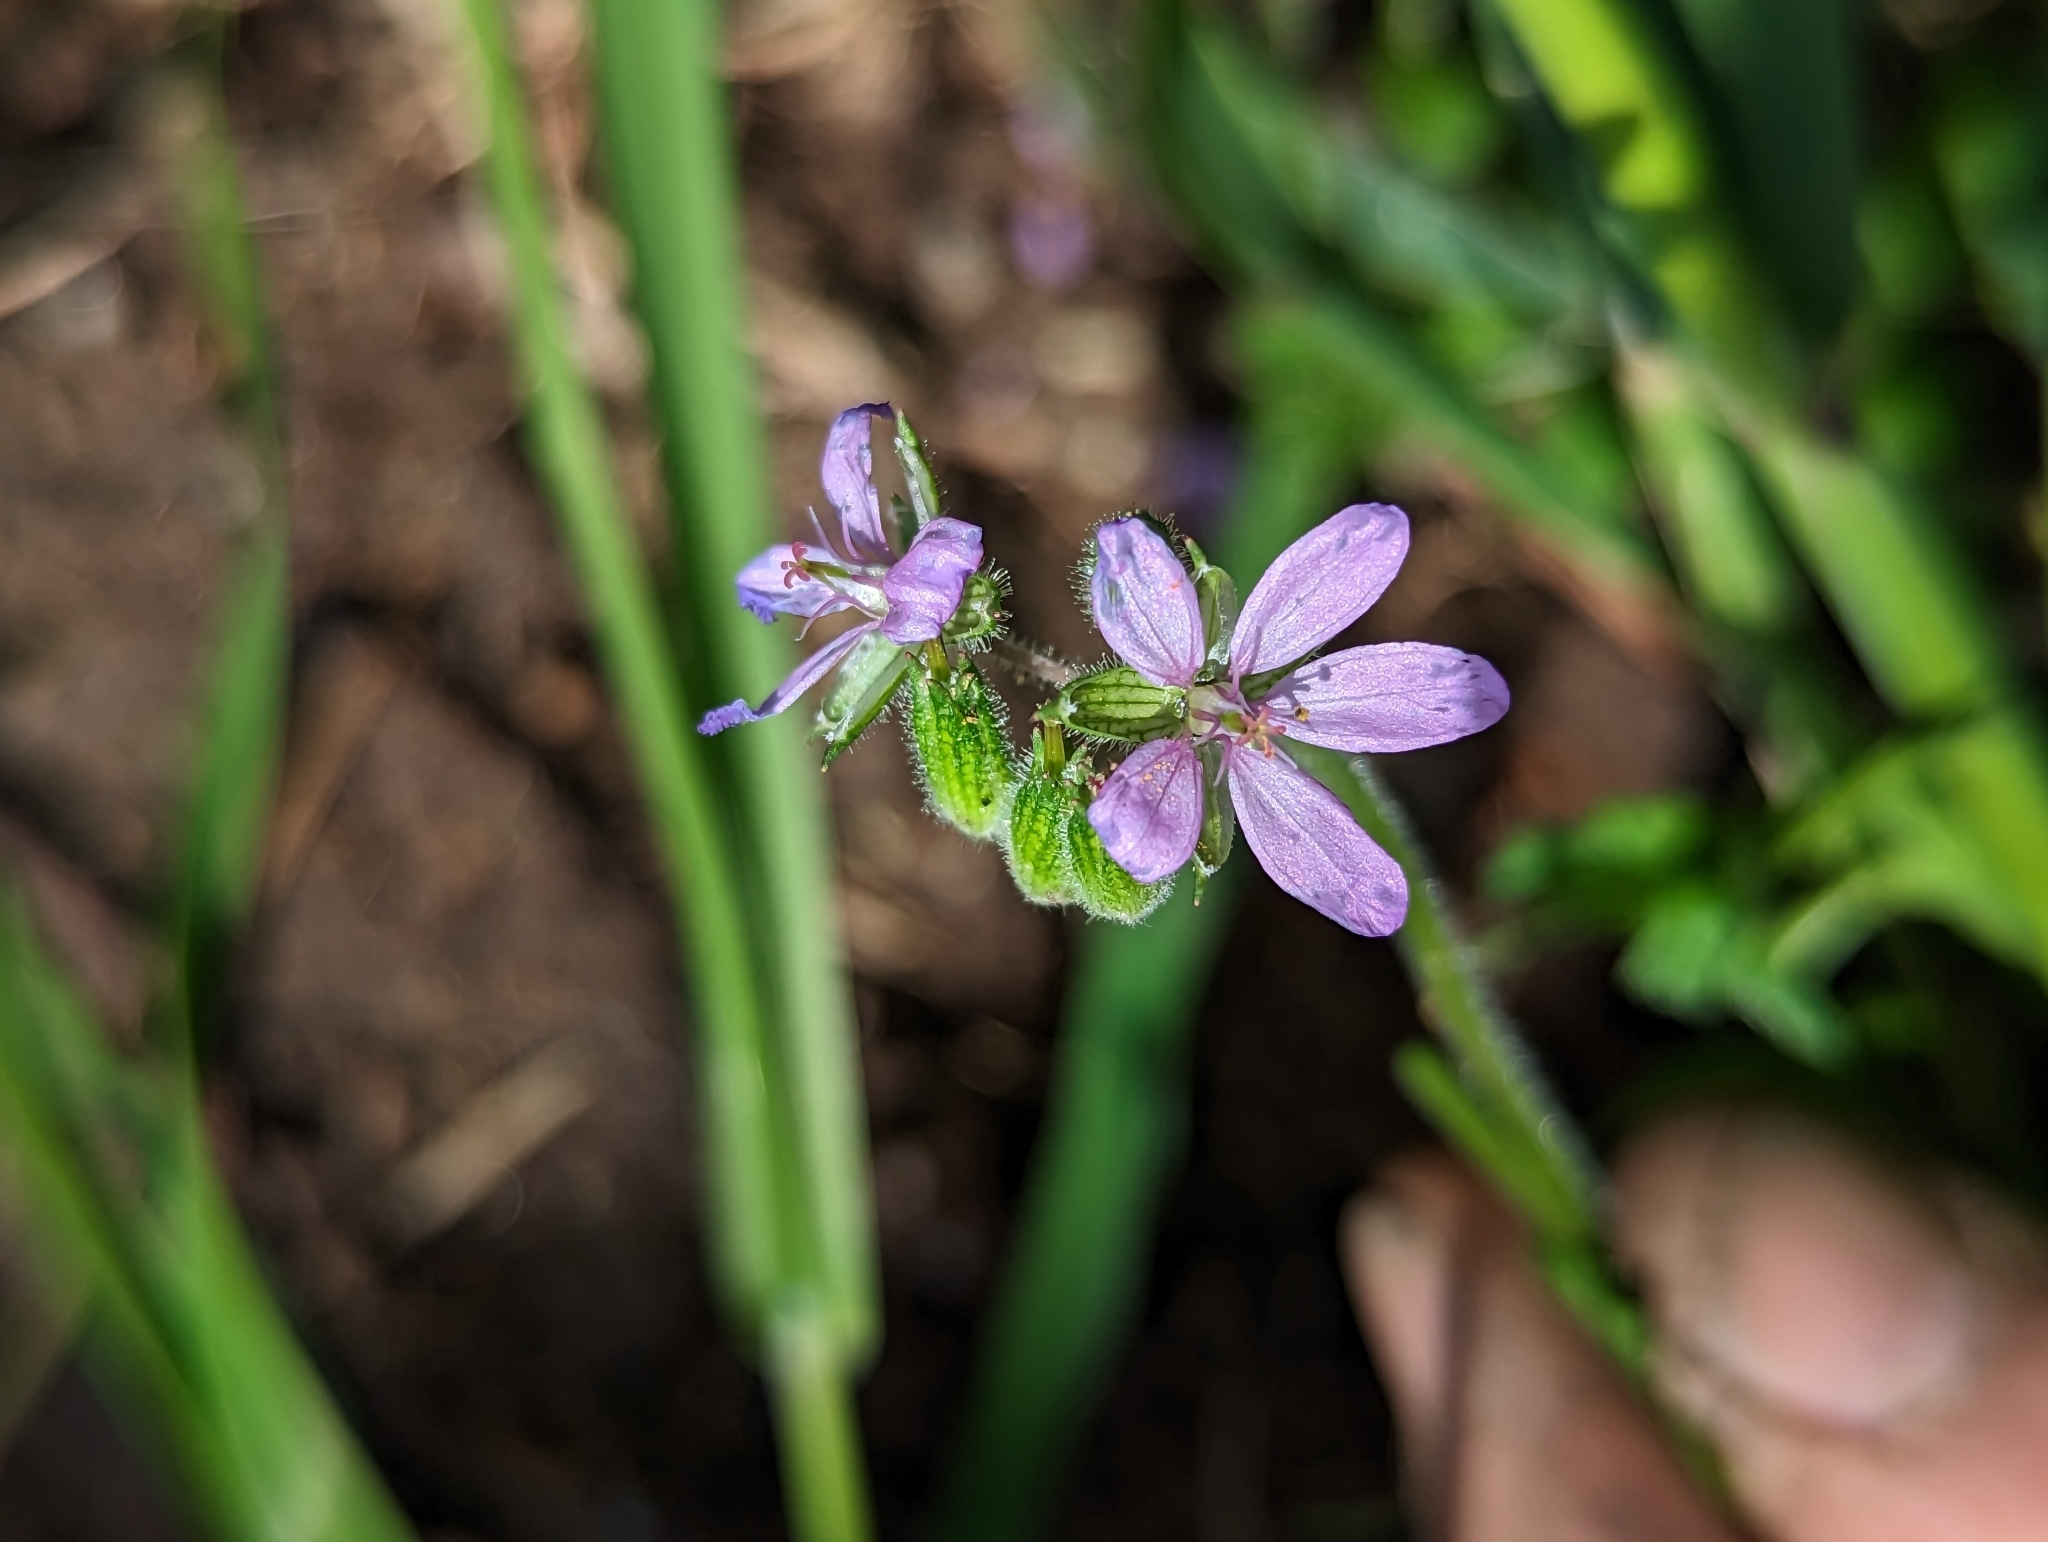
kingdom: Plantae
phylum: Tracheophyta
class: Magnoliopsida
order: Geraniales
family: Geraniaceae
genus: Erodium
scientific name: Erodium moschatum
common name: Musk stork's-bill
